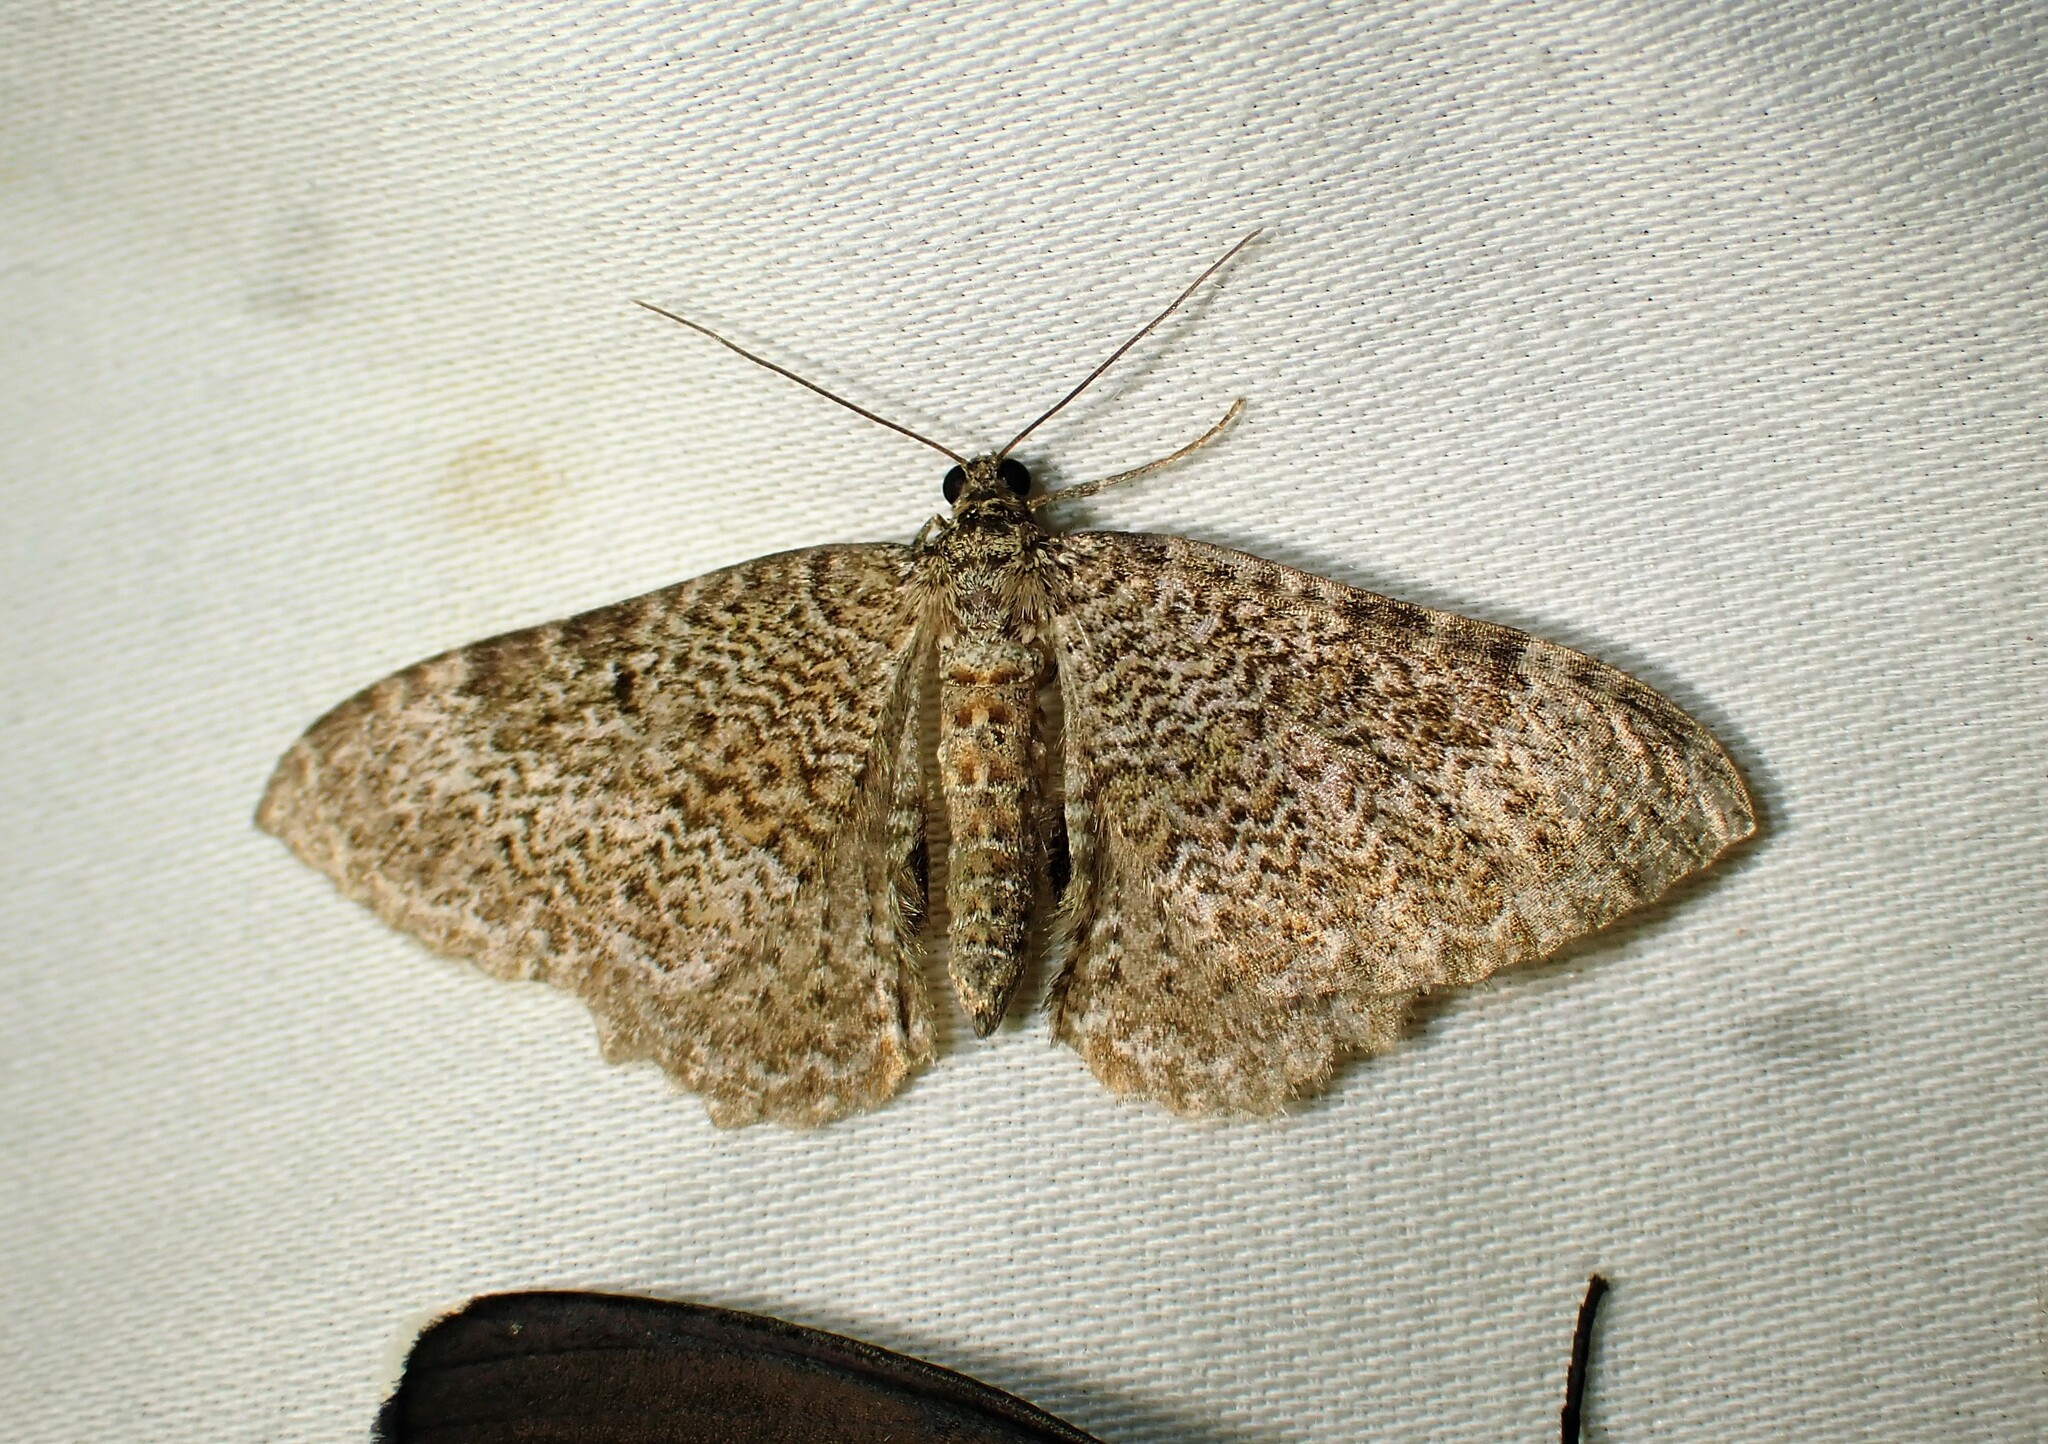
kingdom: Animalia
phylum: Arthropoda
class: Insecta
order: Lepidoptera
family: Geometridae
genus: Rheumaptera
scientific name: Rheumaptera
